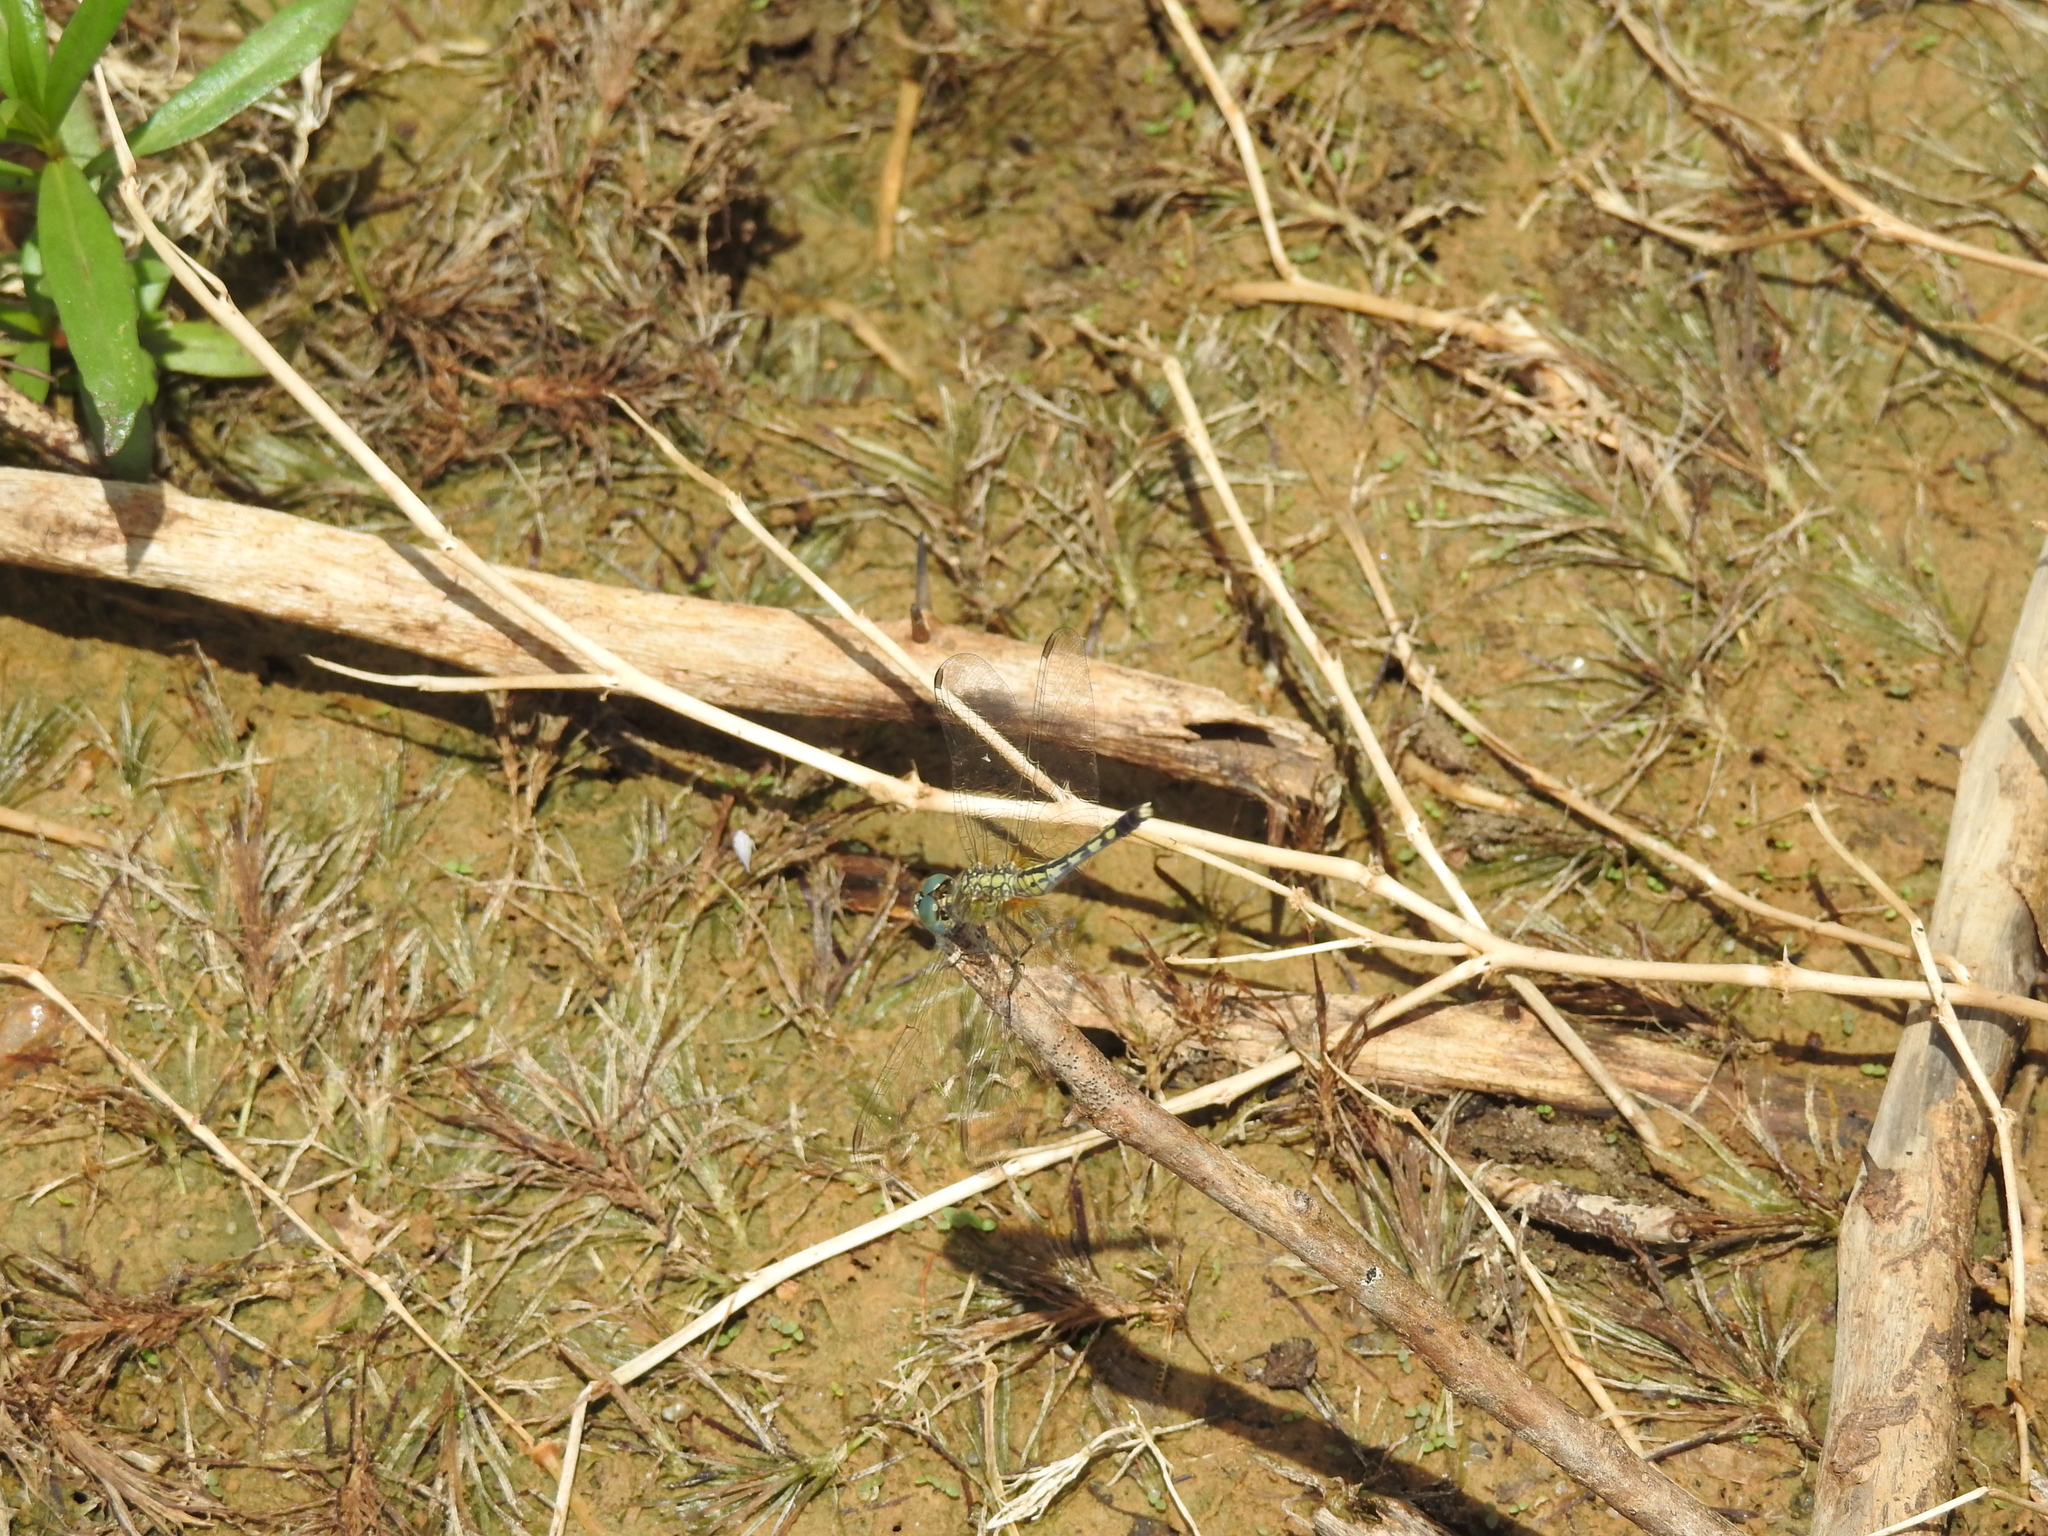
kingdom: Animalia
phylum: Arthropoda
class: Insecta
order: Odonata
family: Libellulidae
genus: Diplacodes
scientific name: Diplacodes trivialis
